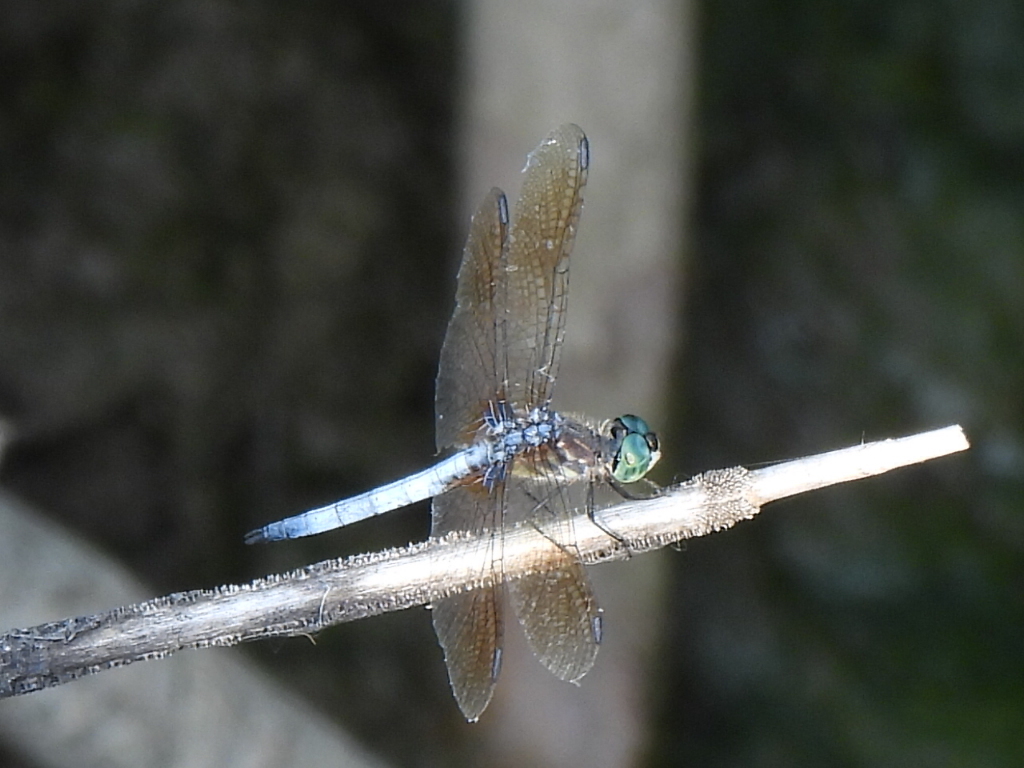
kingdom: Animalia
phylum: Arthropoda
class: Insecta
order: Odonata
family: Libellulidae
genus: Pachydiplax
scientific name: Pachydiplax longipennis
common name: Blue dasher
